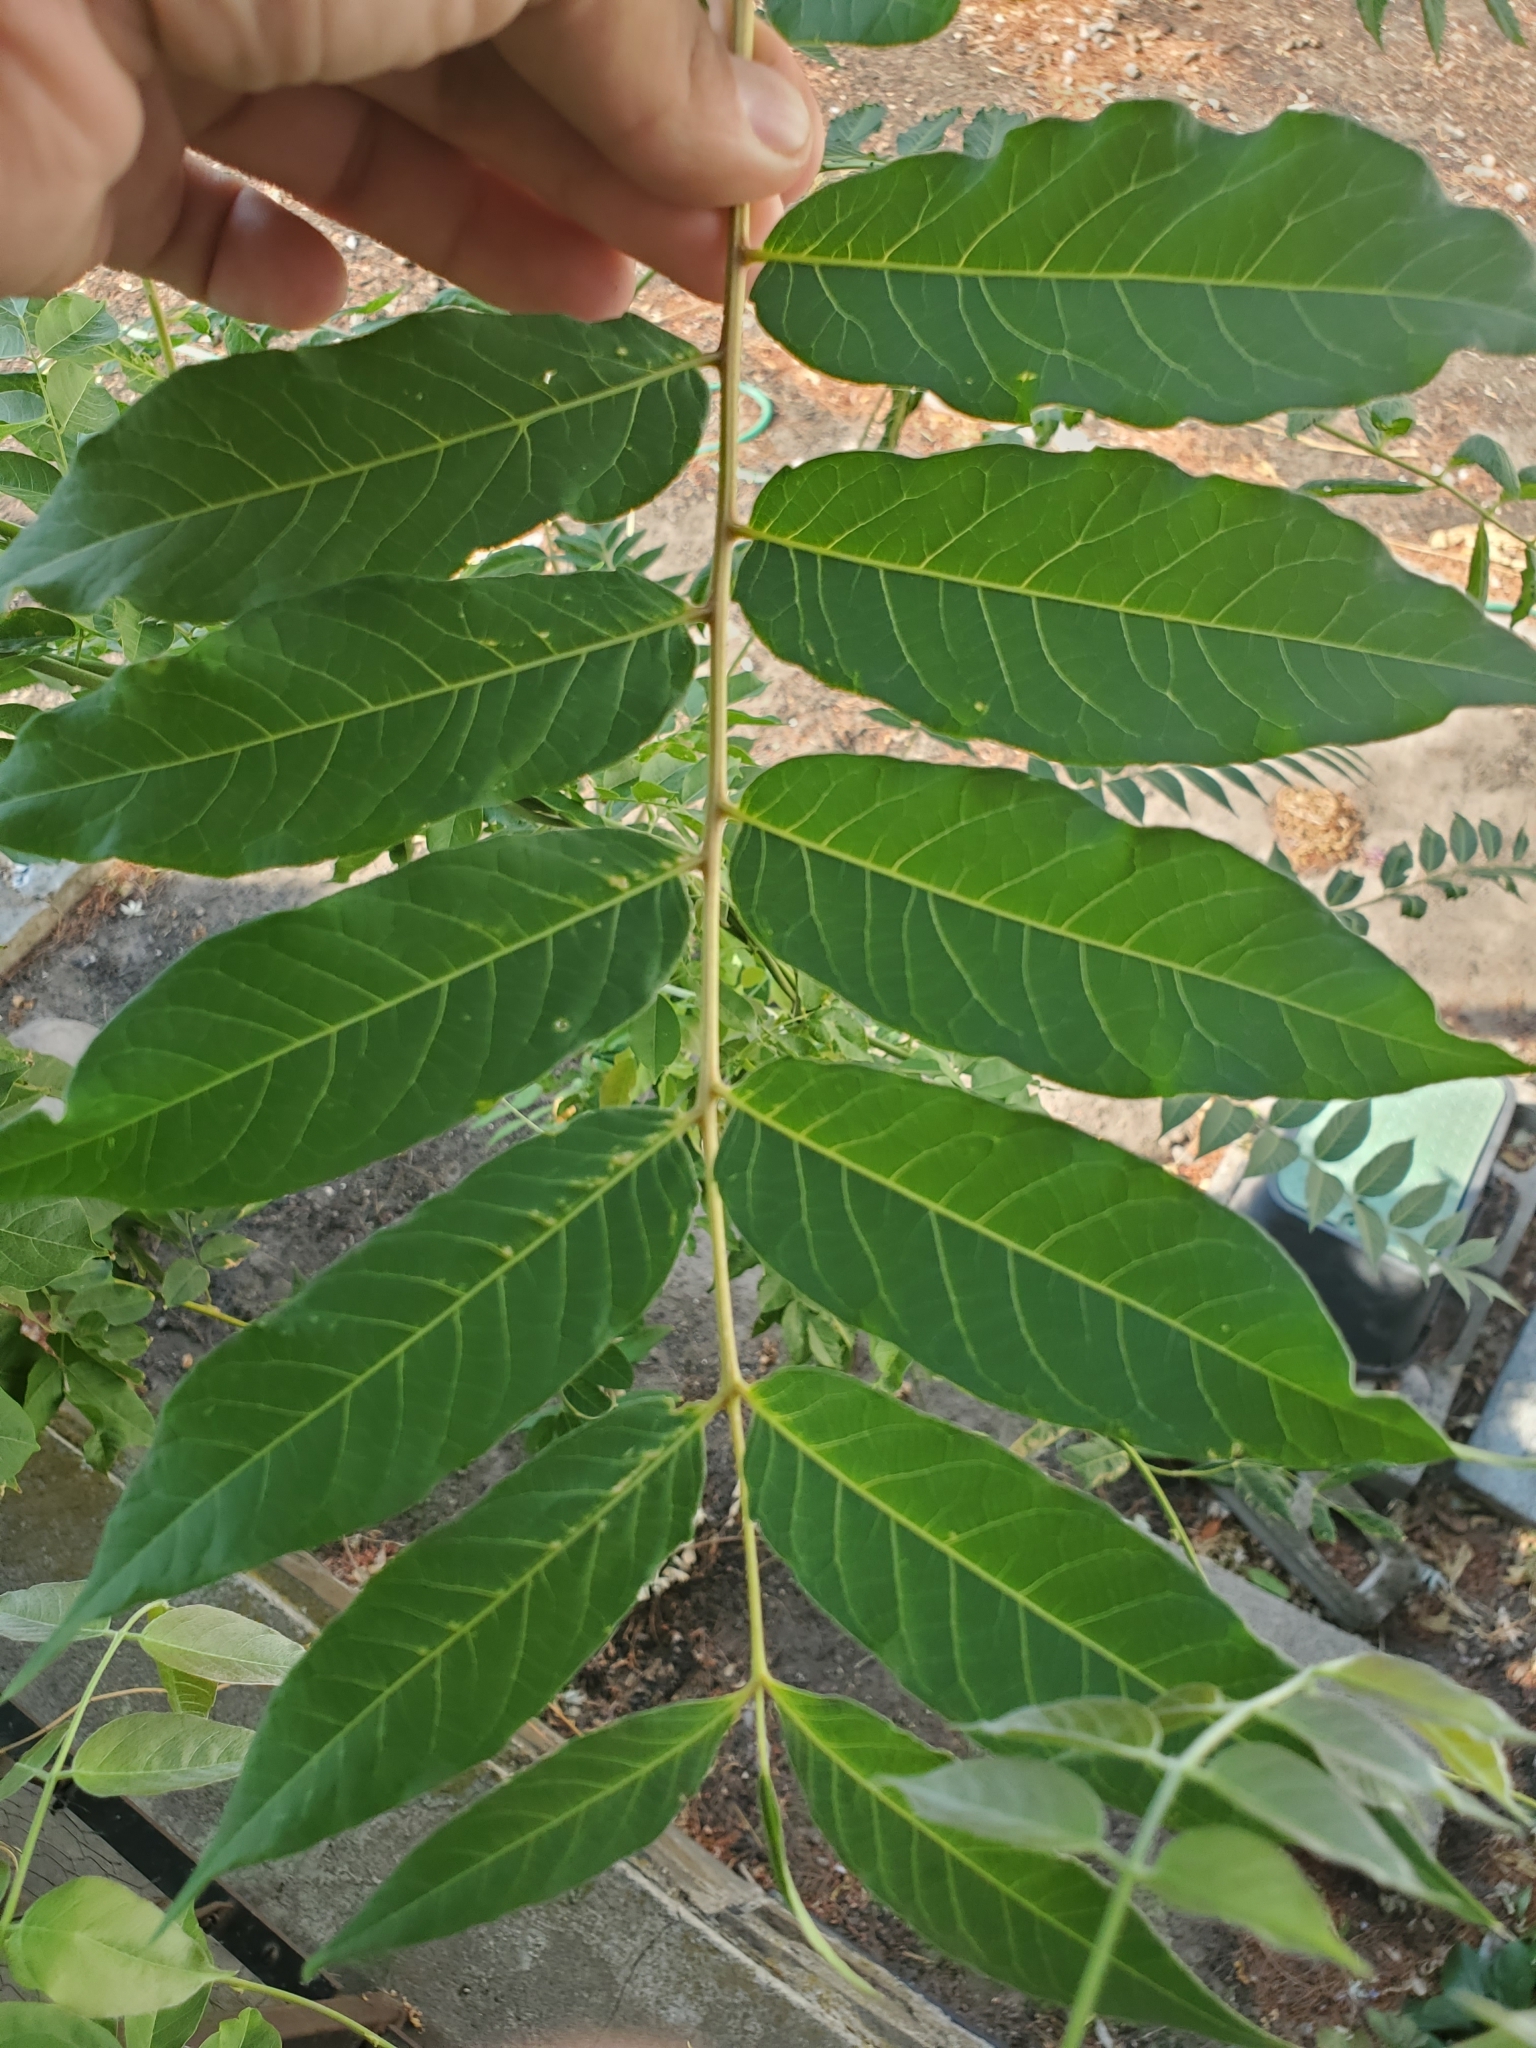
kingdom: Plantae
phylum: Tracheophyta
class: Magnoliopsida
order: Sapindales
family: Simaroubaceae
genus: Ailanthus
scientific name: Ailanthus altissima
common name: Tree-of-heaven
